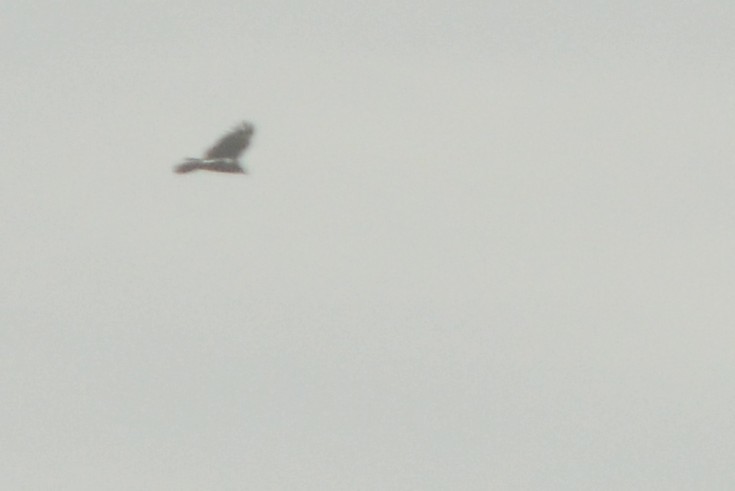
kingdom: Animalia
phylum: Chordata
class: Aves
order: Accipitriformes
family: Cathartidae
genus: Cathartes
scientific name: Cathartes aura
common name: Turkey vulture
